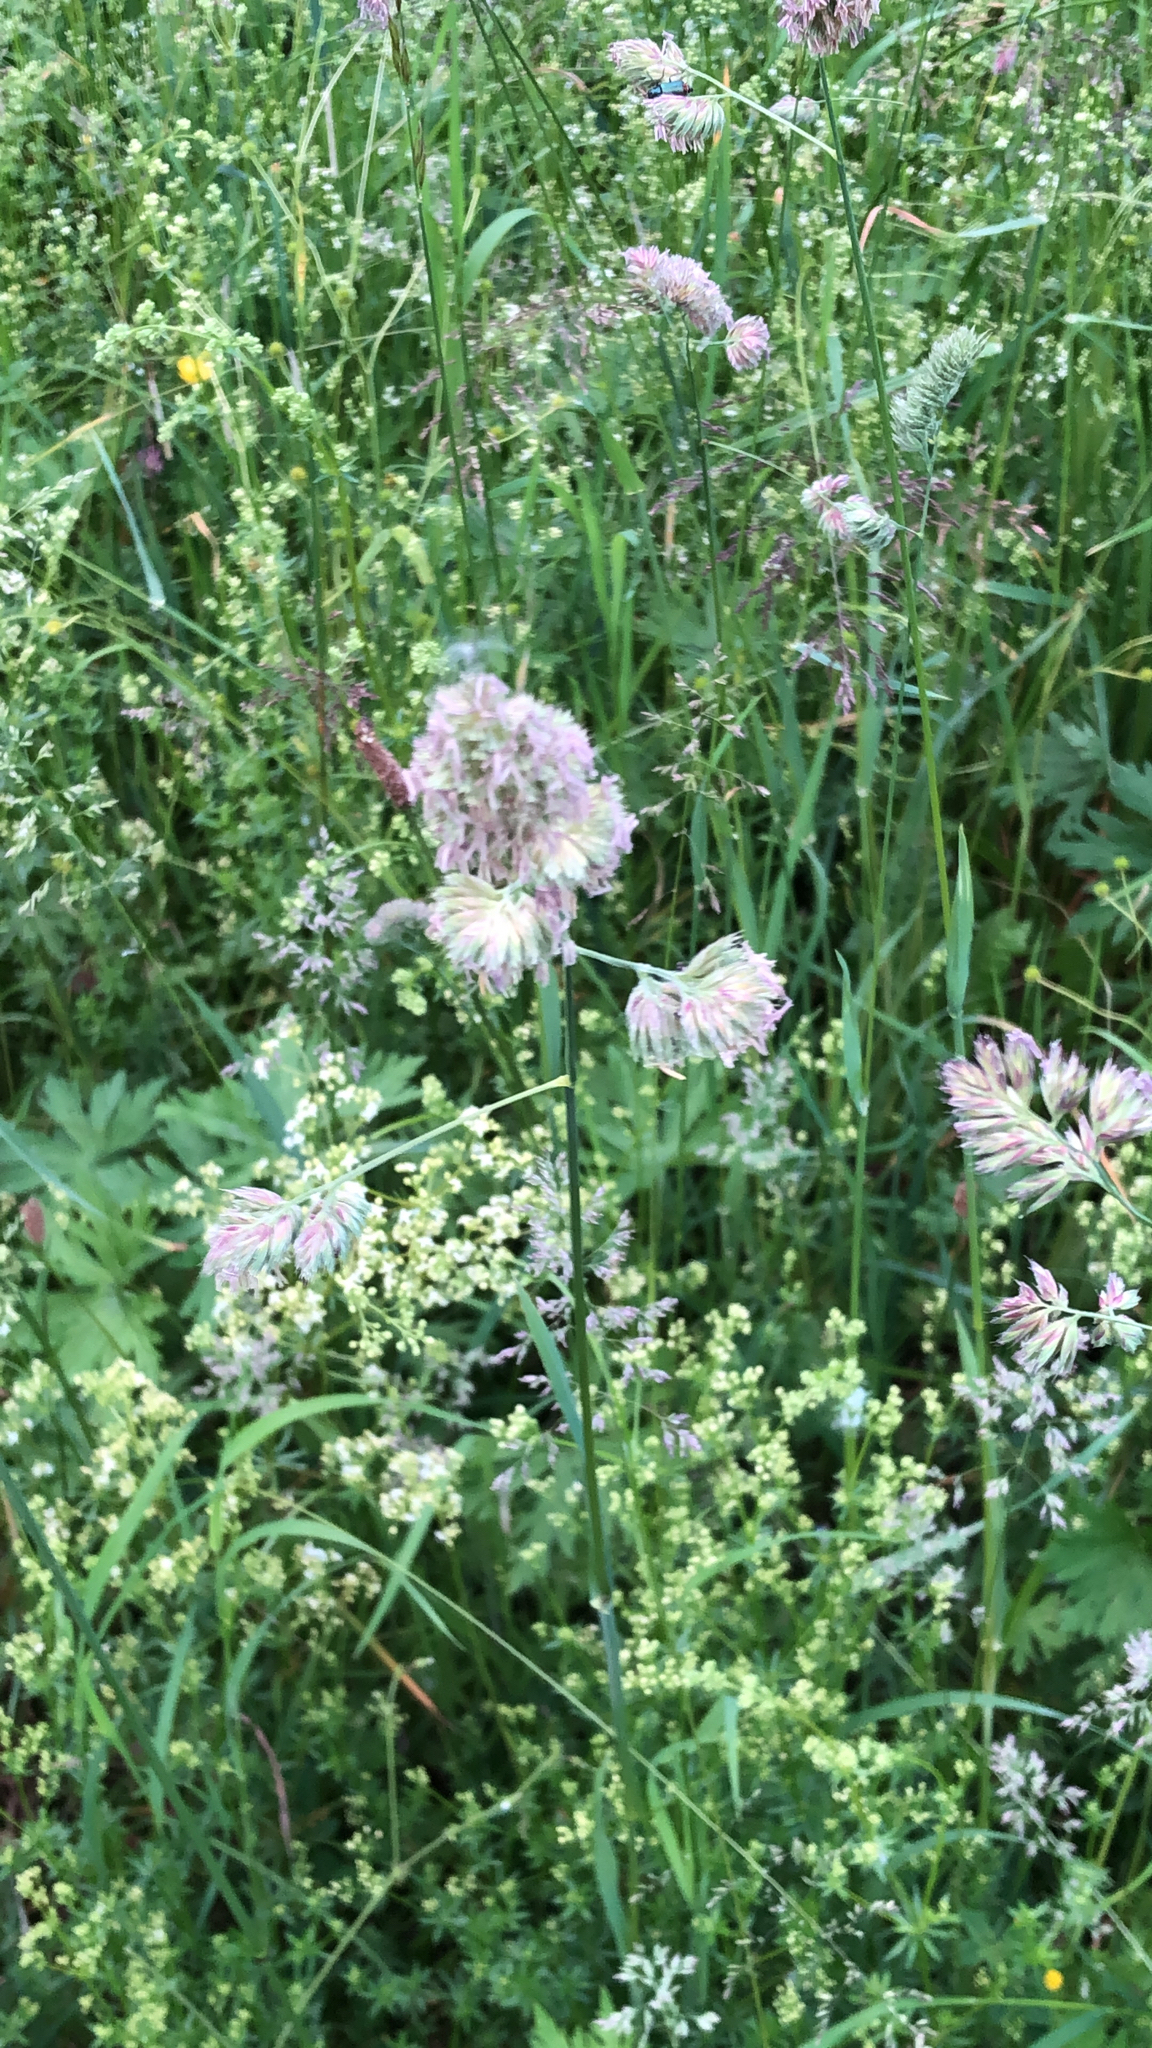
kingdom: Plantae
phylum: Tracheophyta
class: Liliopsida
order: Poales
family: Poaceae
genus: Dactylis
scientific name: Dactylis glomerata
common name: Orchardgrass
